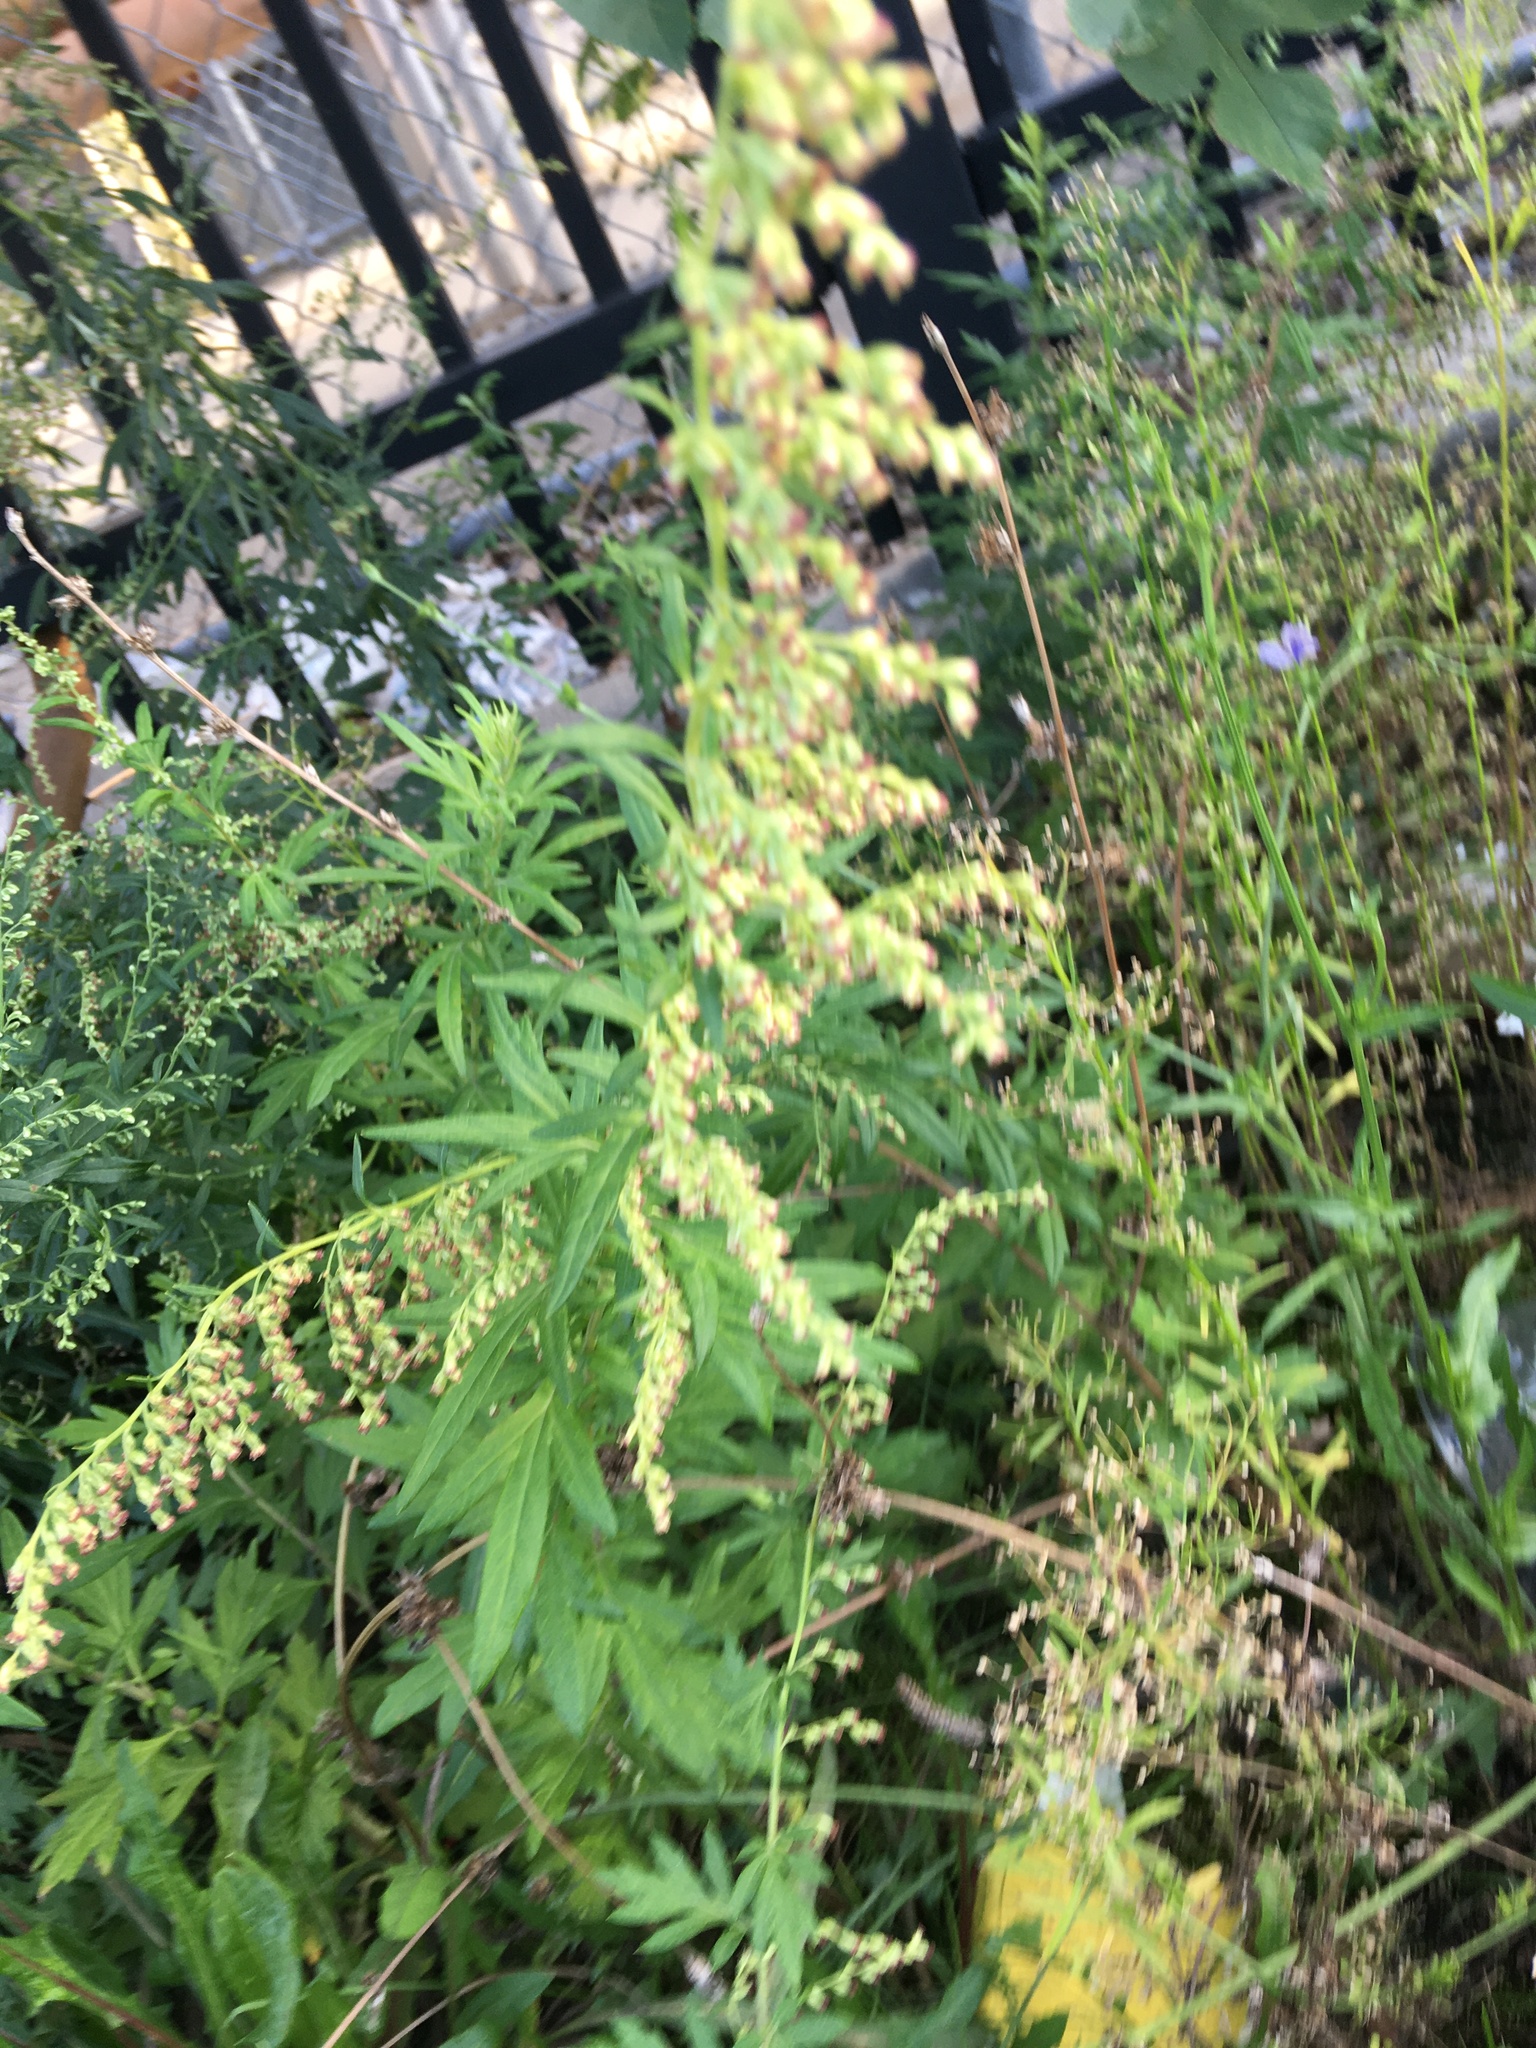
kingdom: Plantae
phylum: Tracheophyta
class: Magnoliopsida
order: Asterales
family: Asteraceae
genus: Artemisia
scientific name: Artemisia vulgaris
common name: Mugwort
